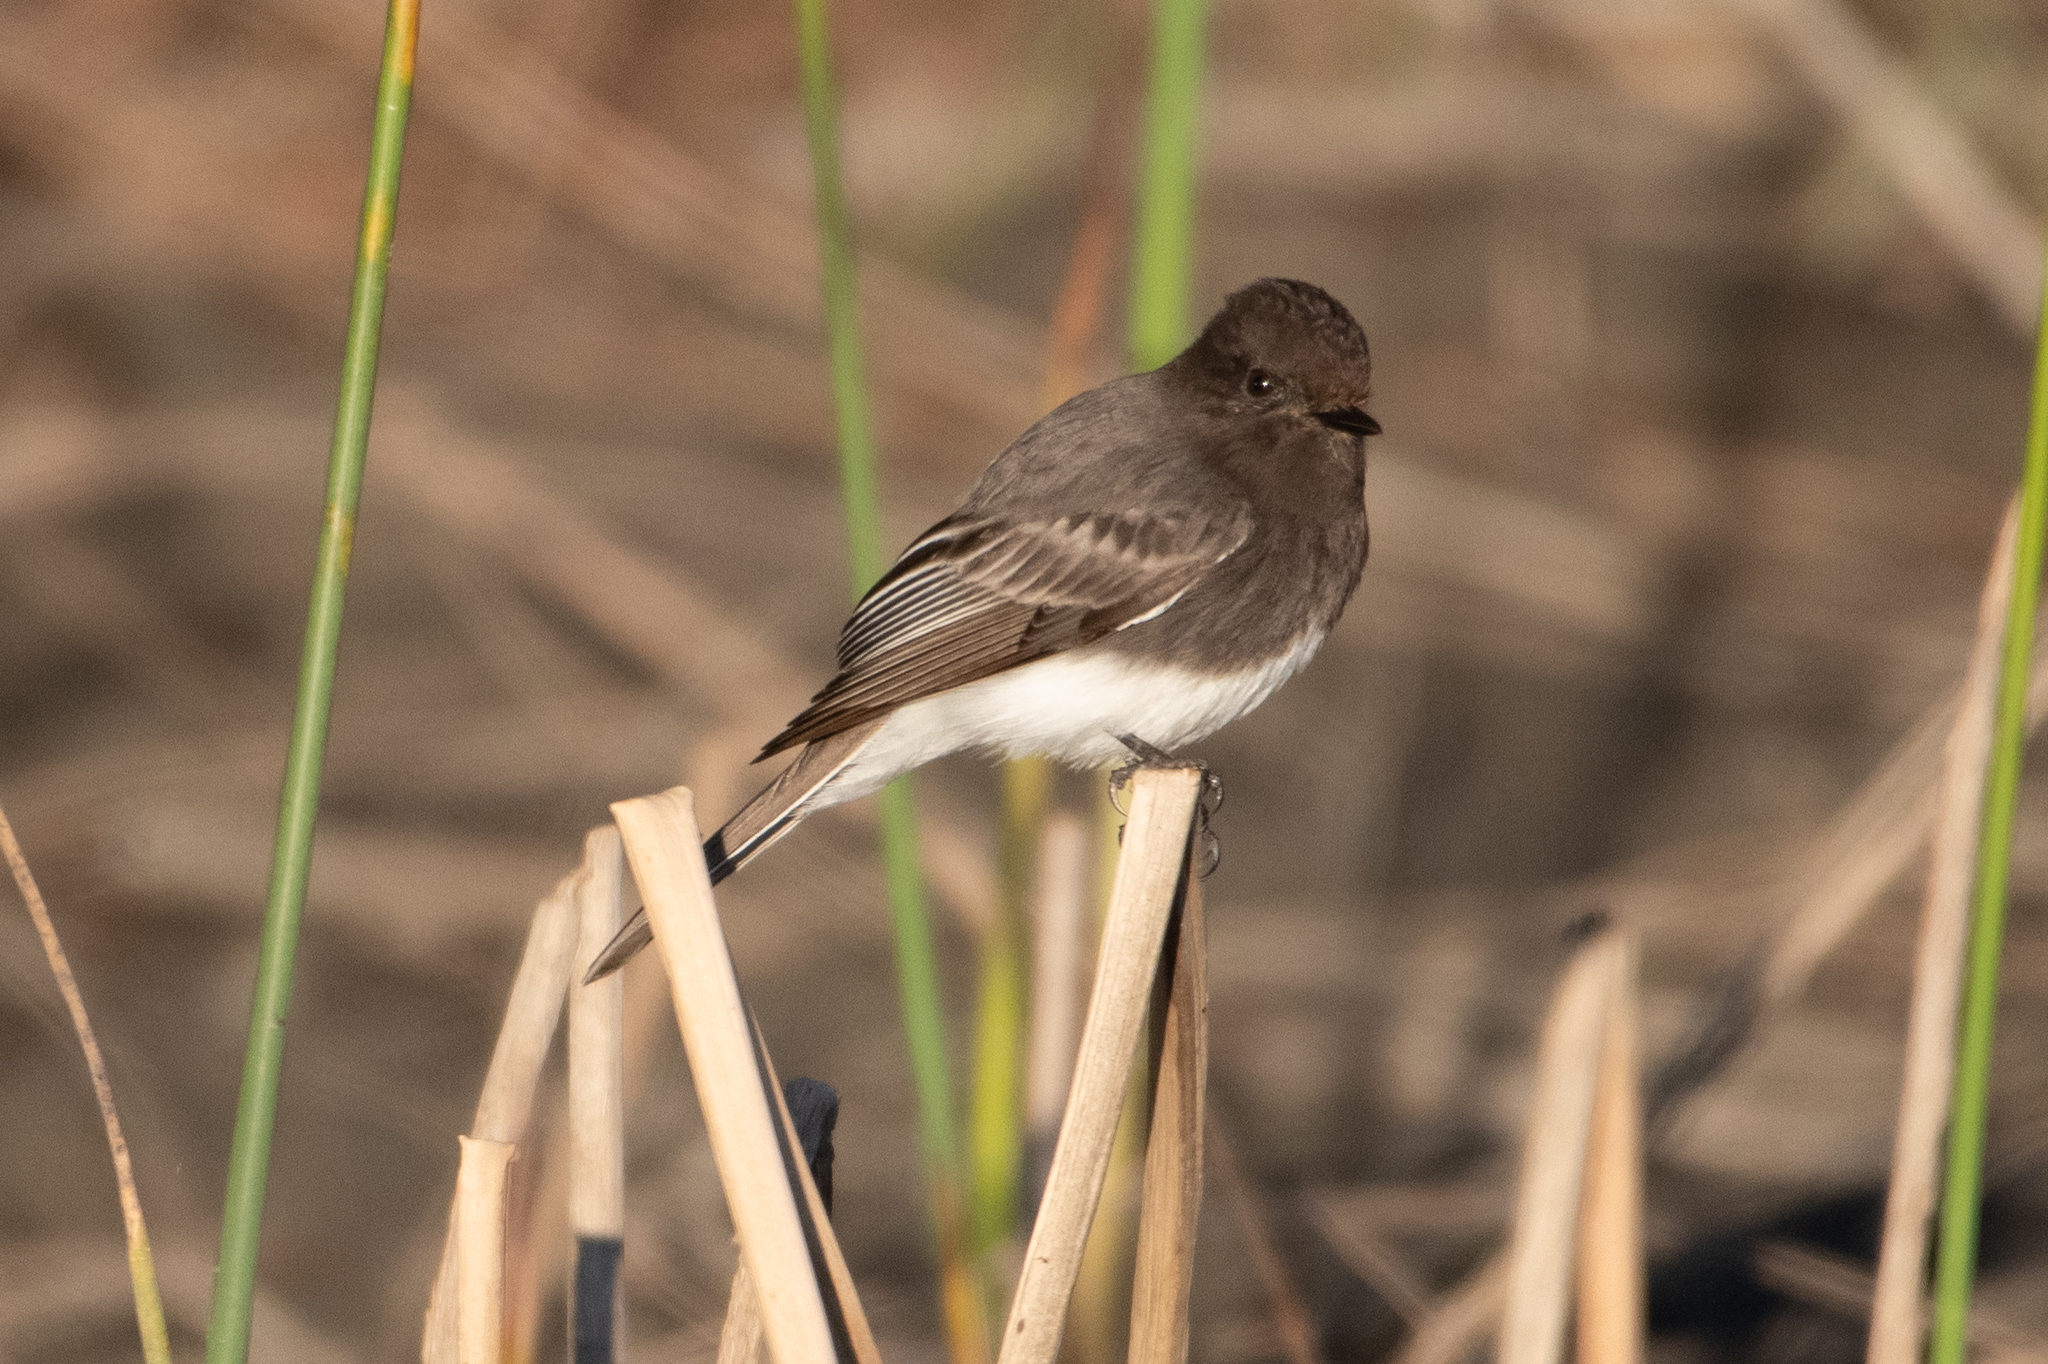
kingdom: Animalia
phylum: Chordata
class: Aves
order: Passeriformes
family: Tyrannidae
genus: Sayornis
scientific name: Sayornis nigricans
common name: Black phoebe
